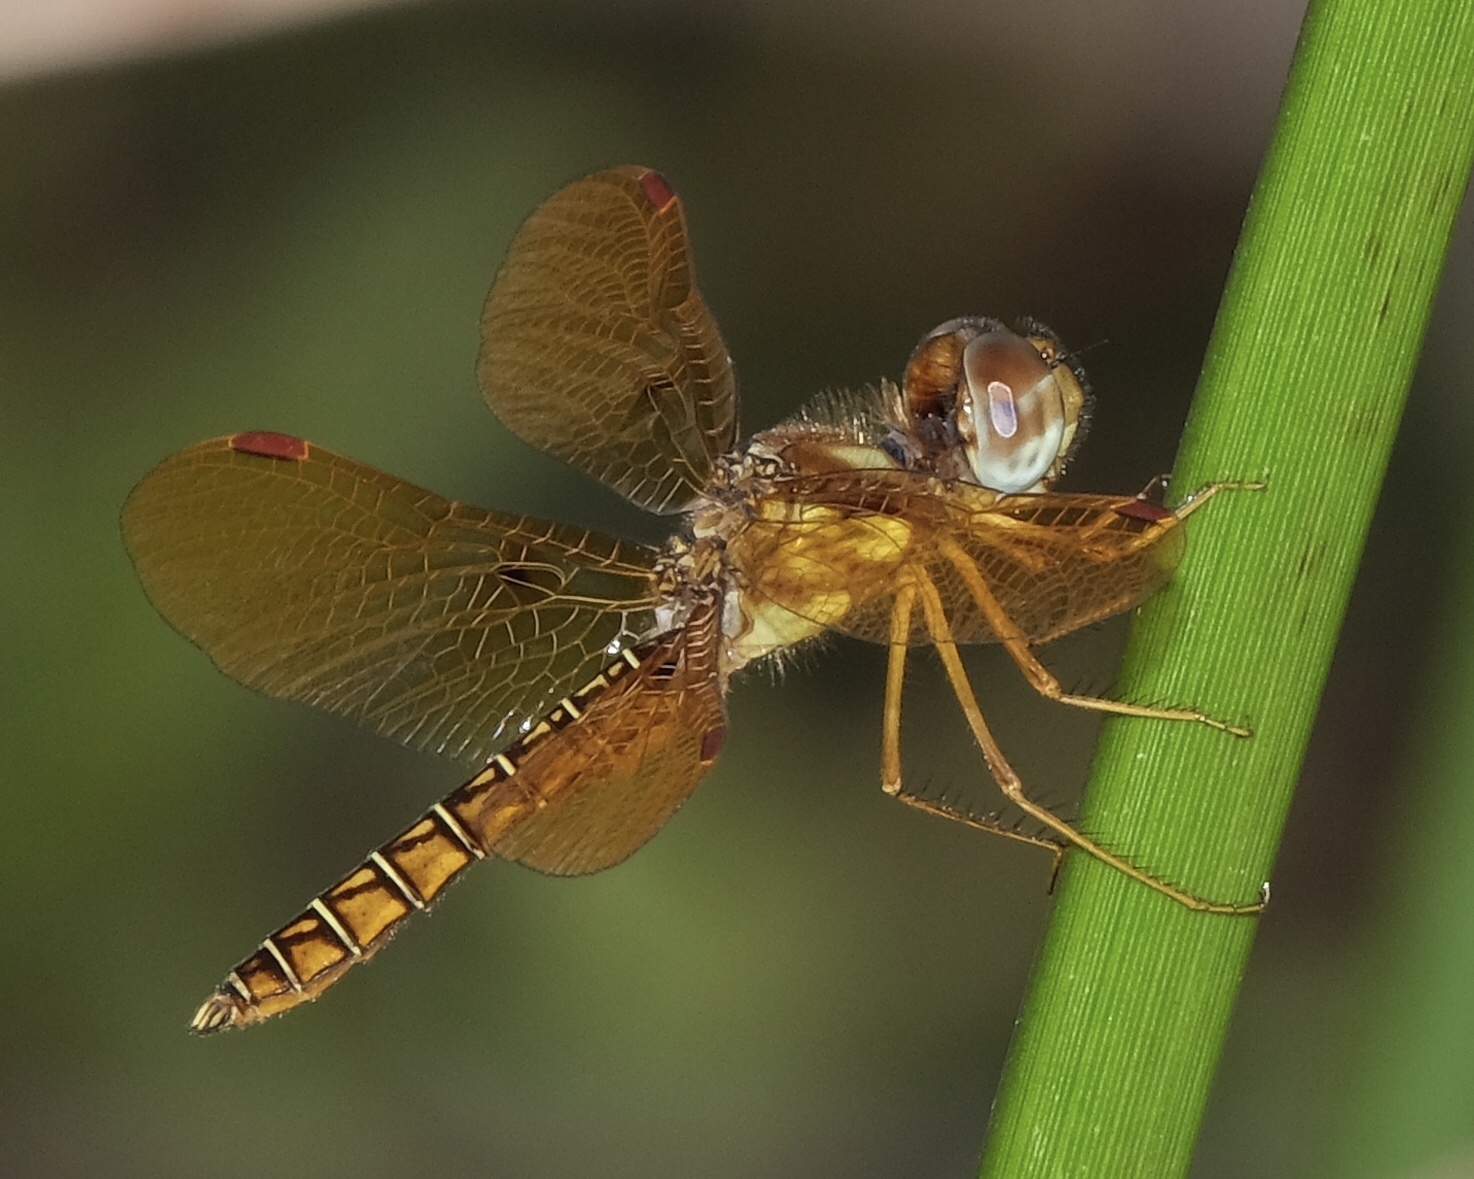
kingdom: Animalia
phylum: Arthropoda
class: Insecta
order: Odonata
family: Libellulidae
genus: Perithemis
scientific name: Perithemis tenera
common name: Eastern amberwing
